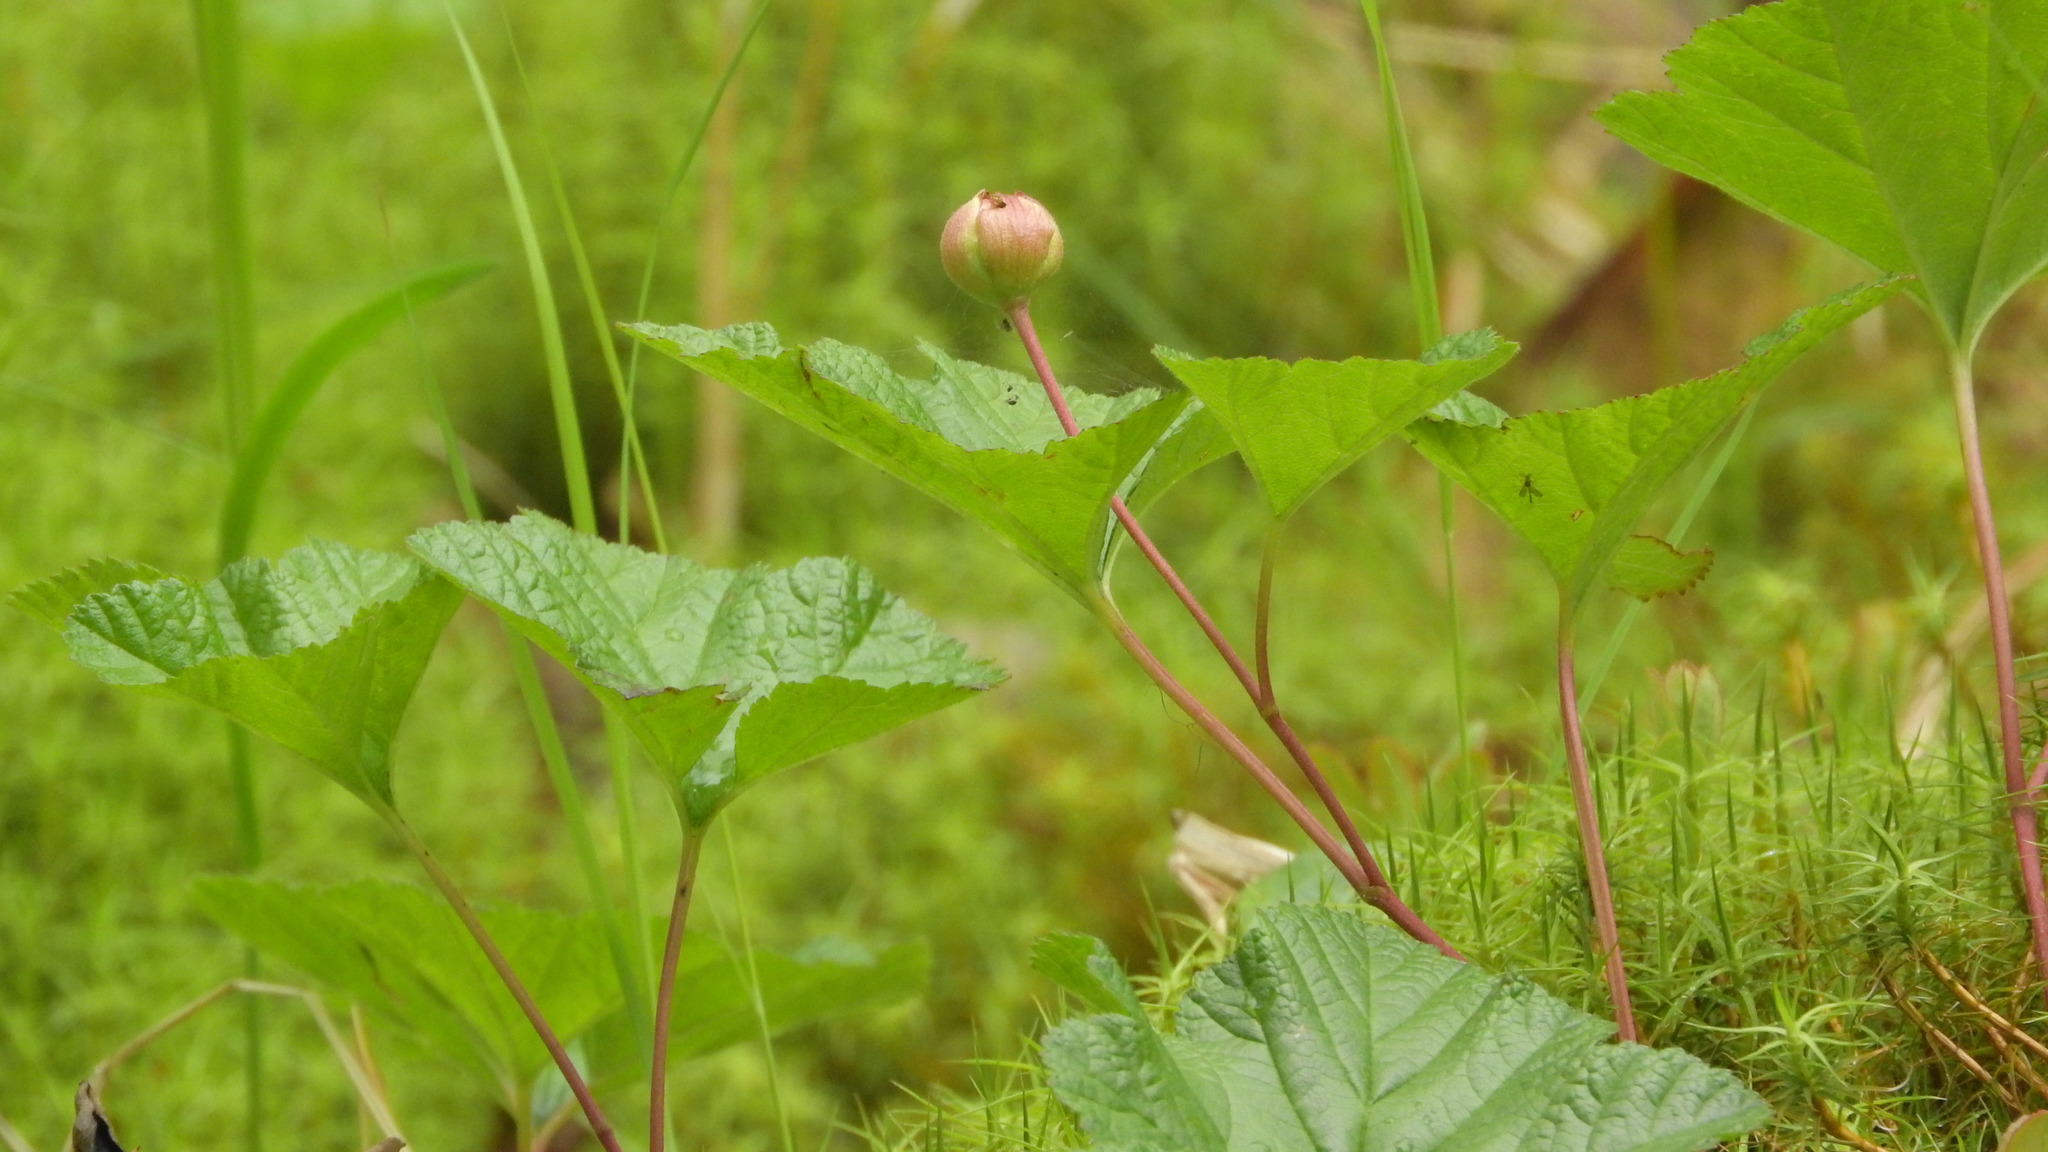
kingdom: Plantae
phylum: Tracheophyta
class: Magnoliopsida
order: Rosales
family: Rosaceae
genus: Rubus
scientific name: Rubus chamaemorus
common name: Cloudberry
